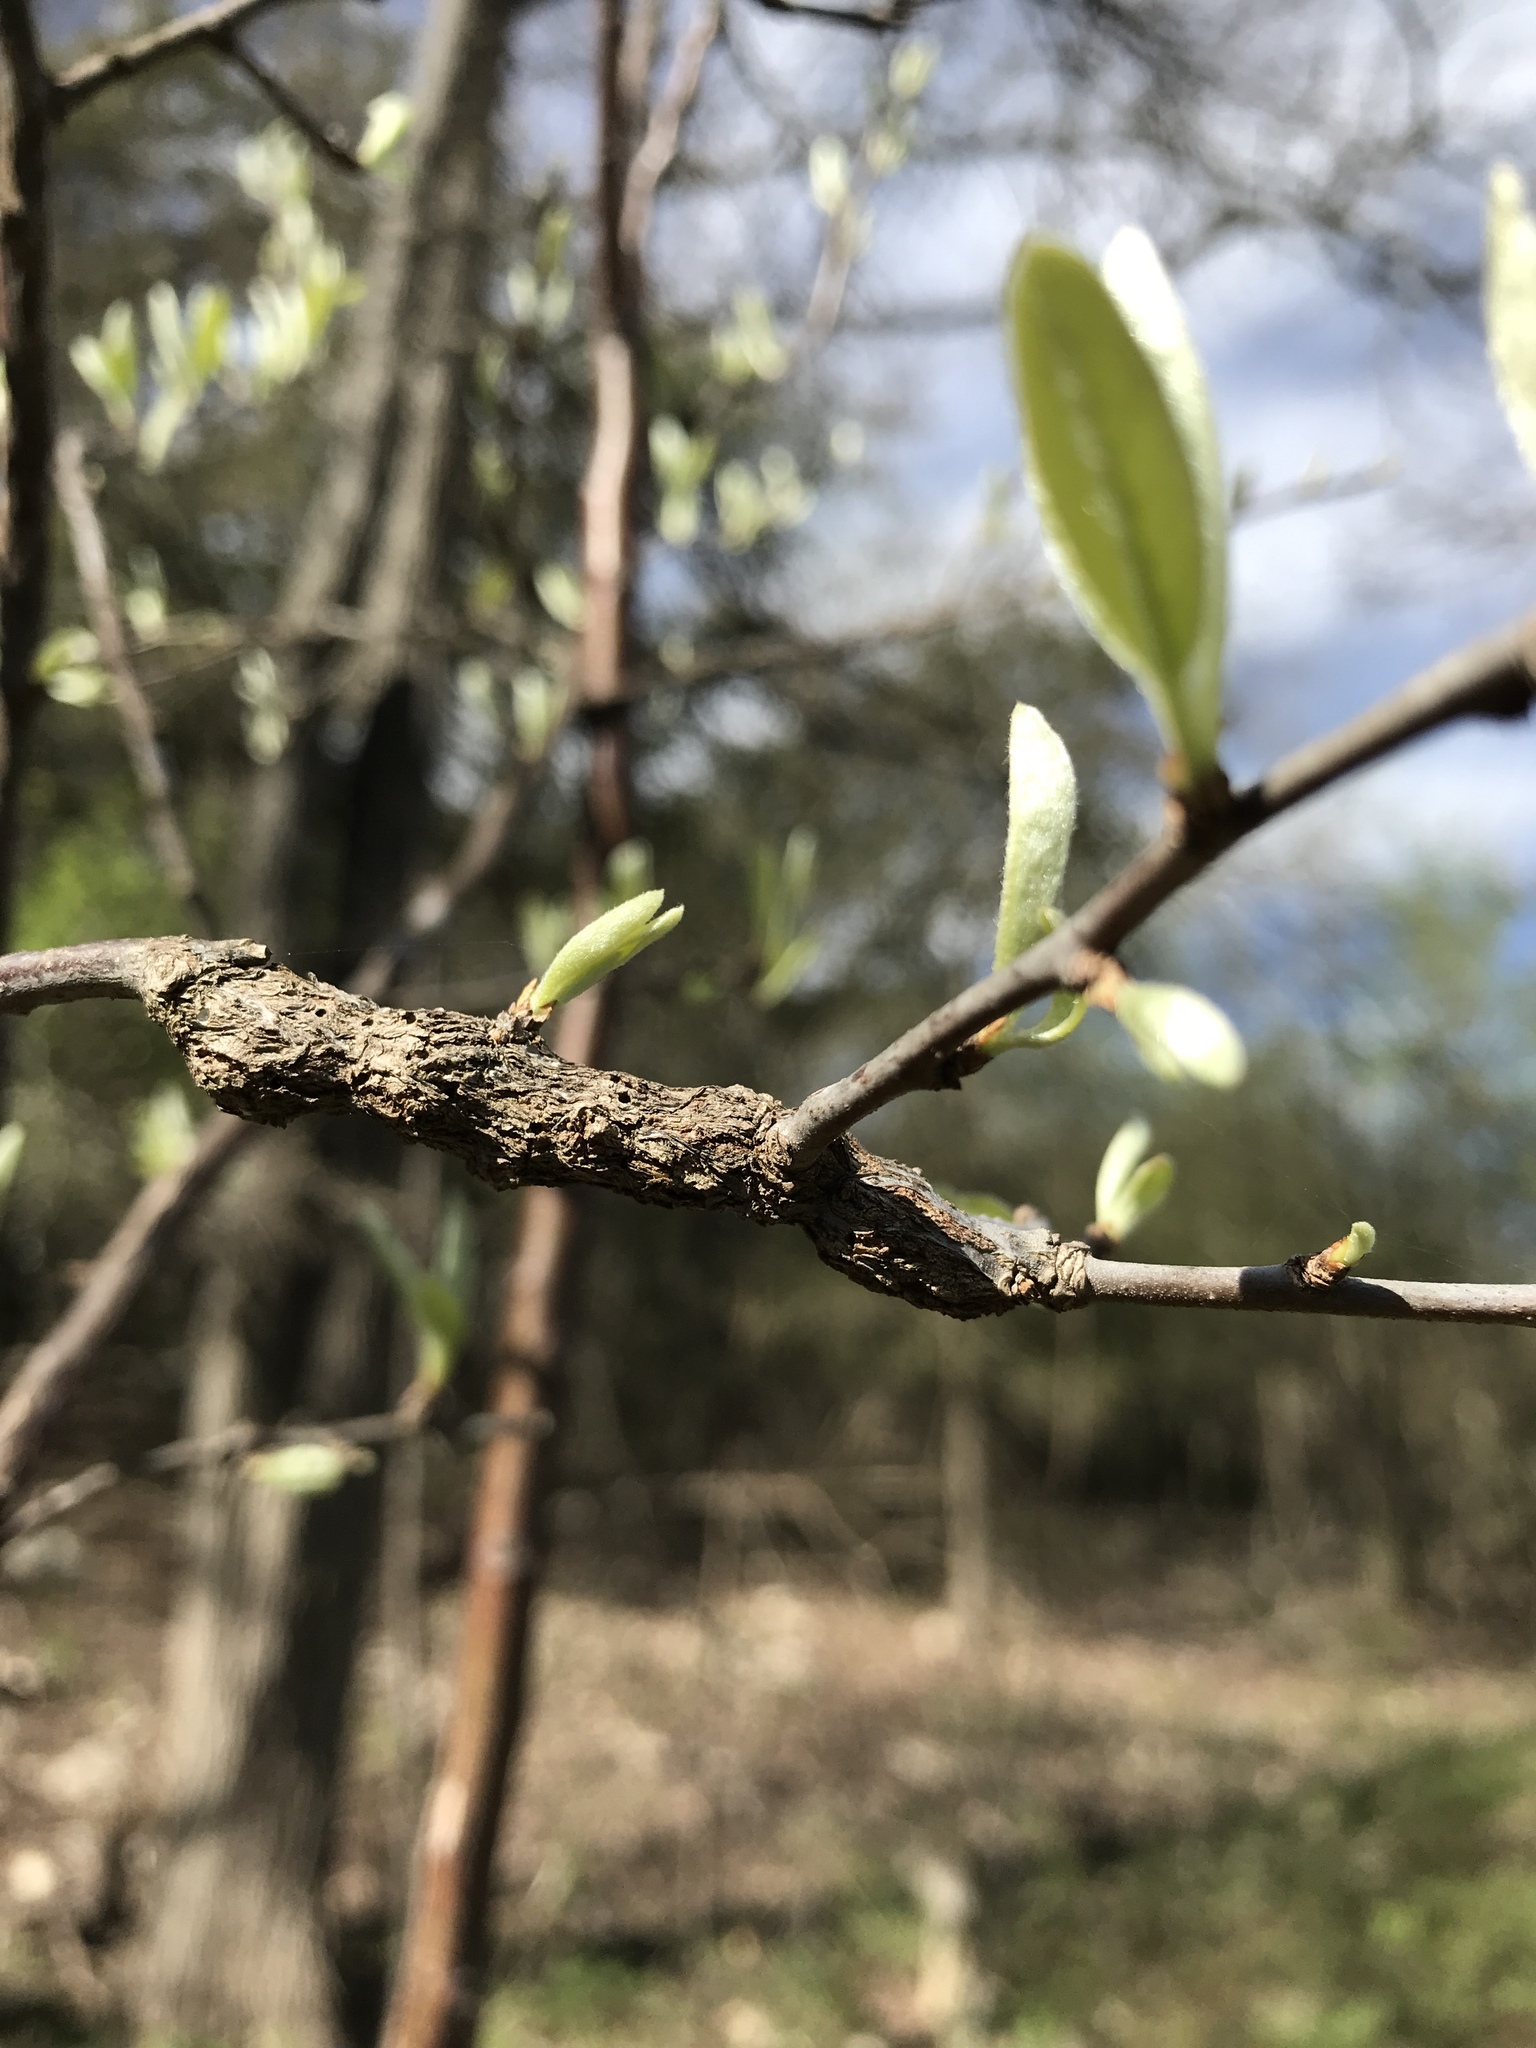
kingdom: Animalia
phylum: Arthropoda
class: Insecta
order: Diptera
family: Cecidomyiidae
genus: Bruggmanniella
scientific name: Bruggmanniella bumeliae
